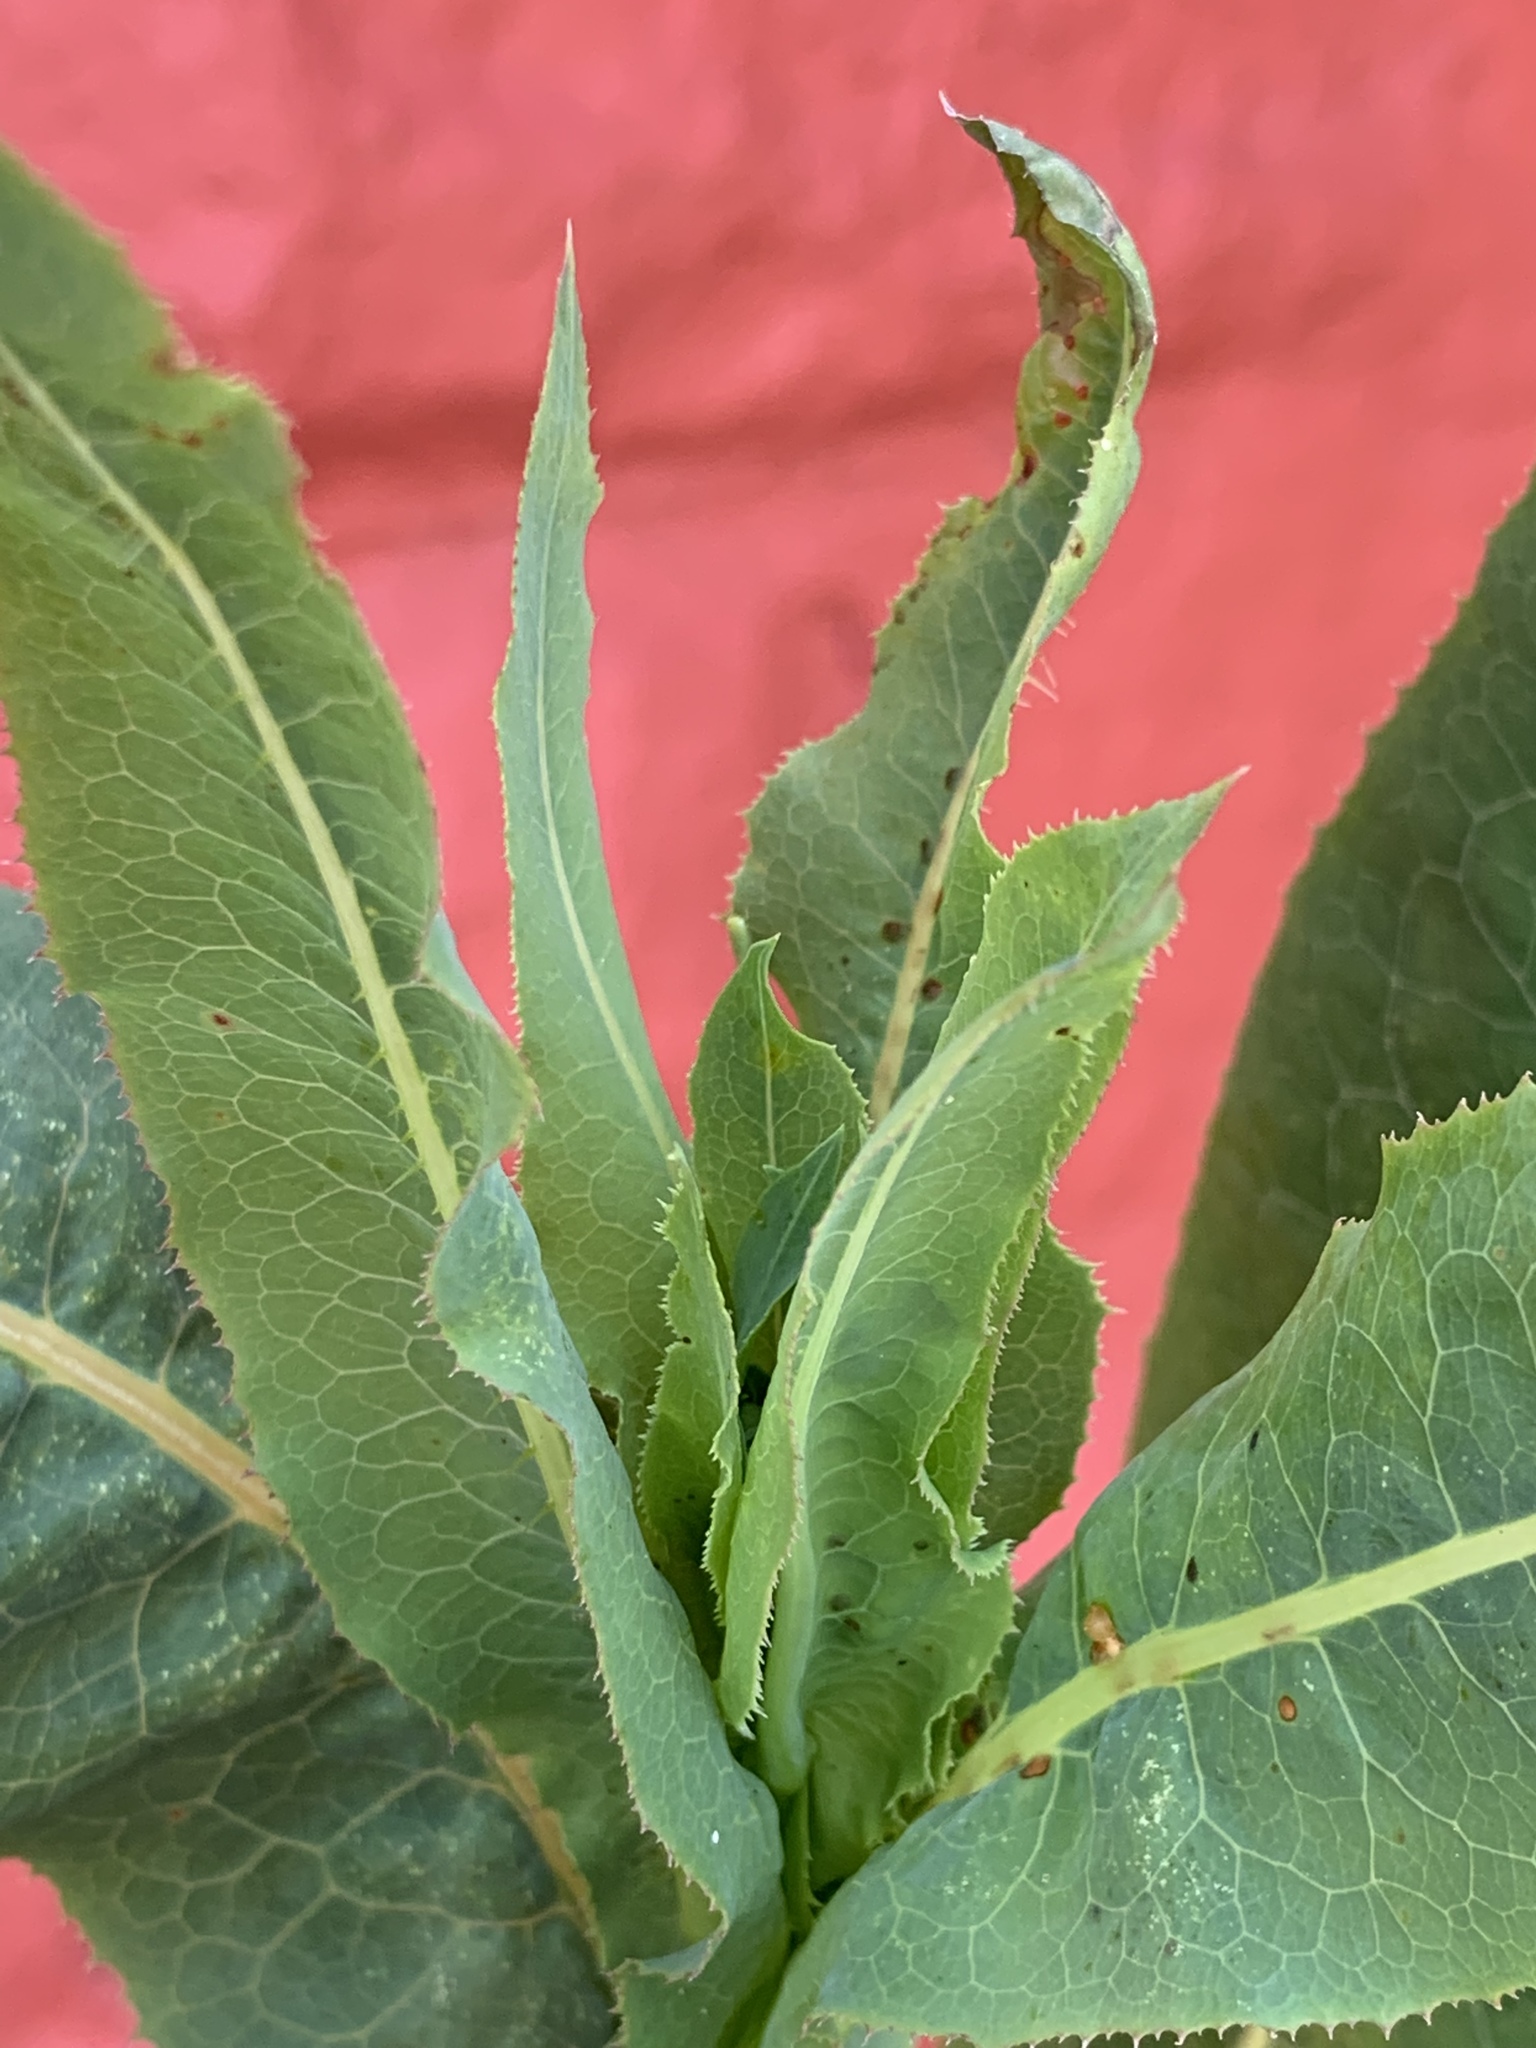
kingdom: Plantae
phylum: Tracheophyta
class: Magnoliopsida
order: Asterales
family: Asteraceae
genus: Lactuca
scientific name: Lactuca serriola
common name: Prickly lettuce
